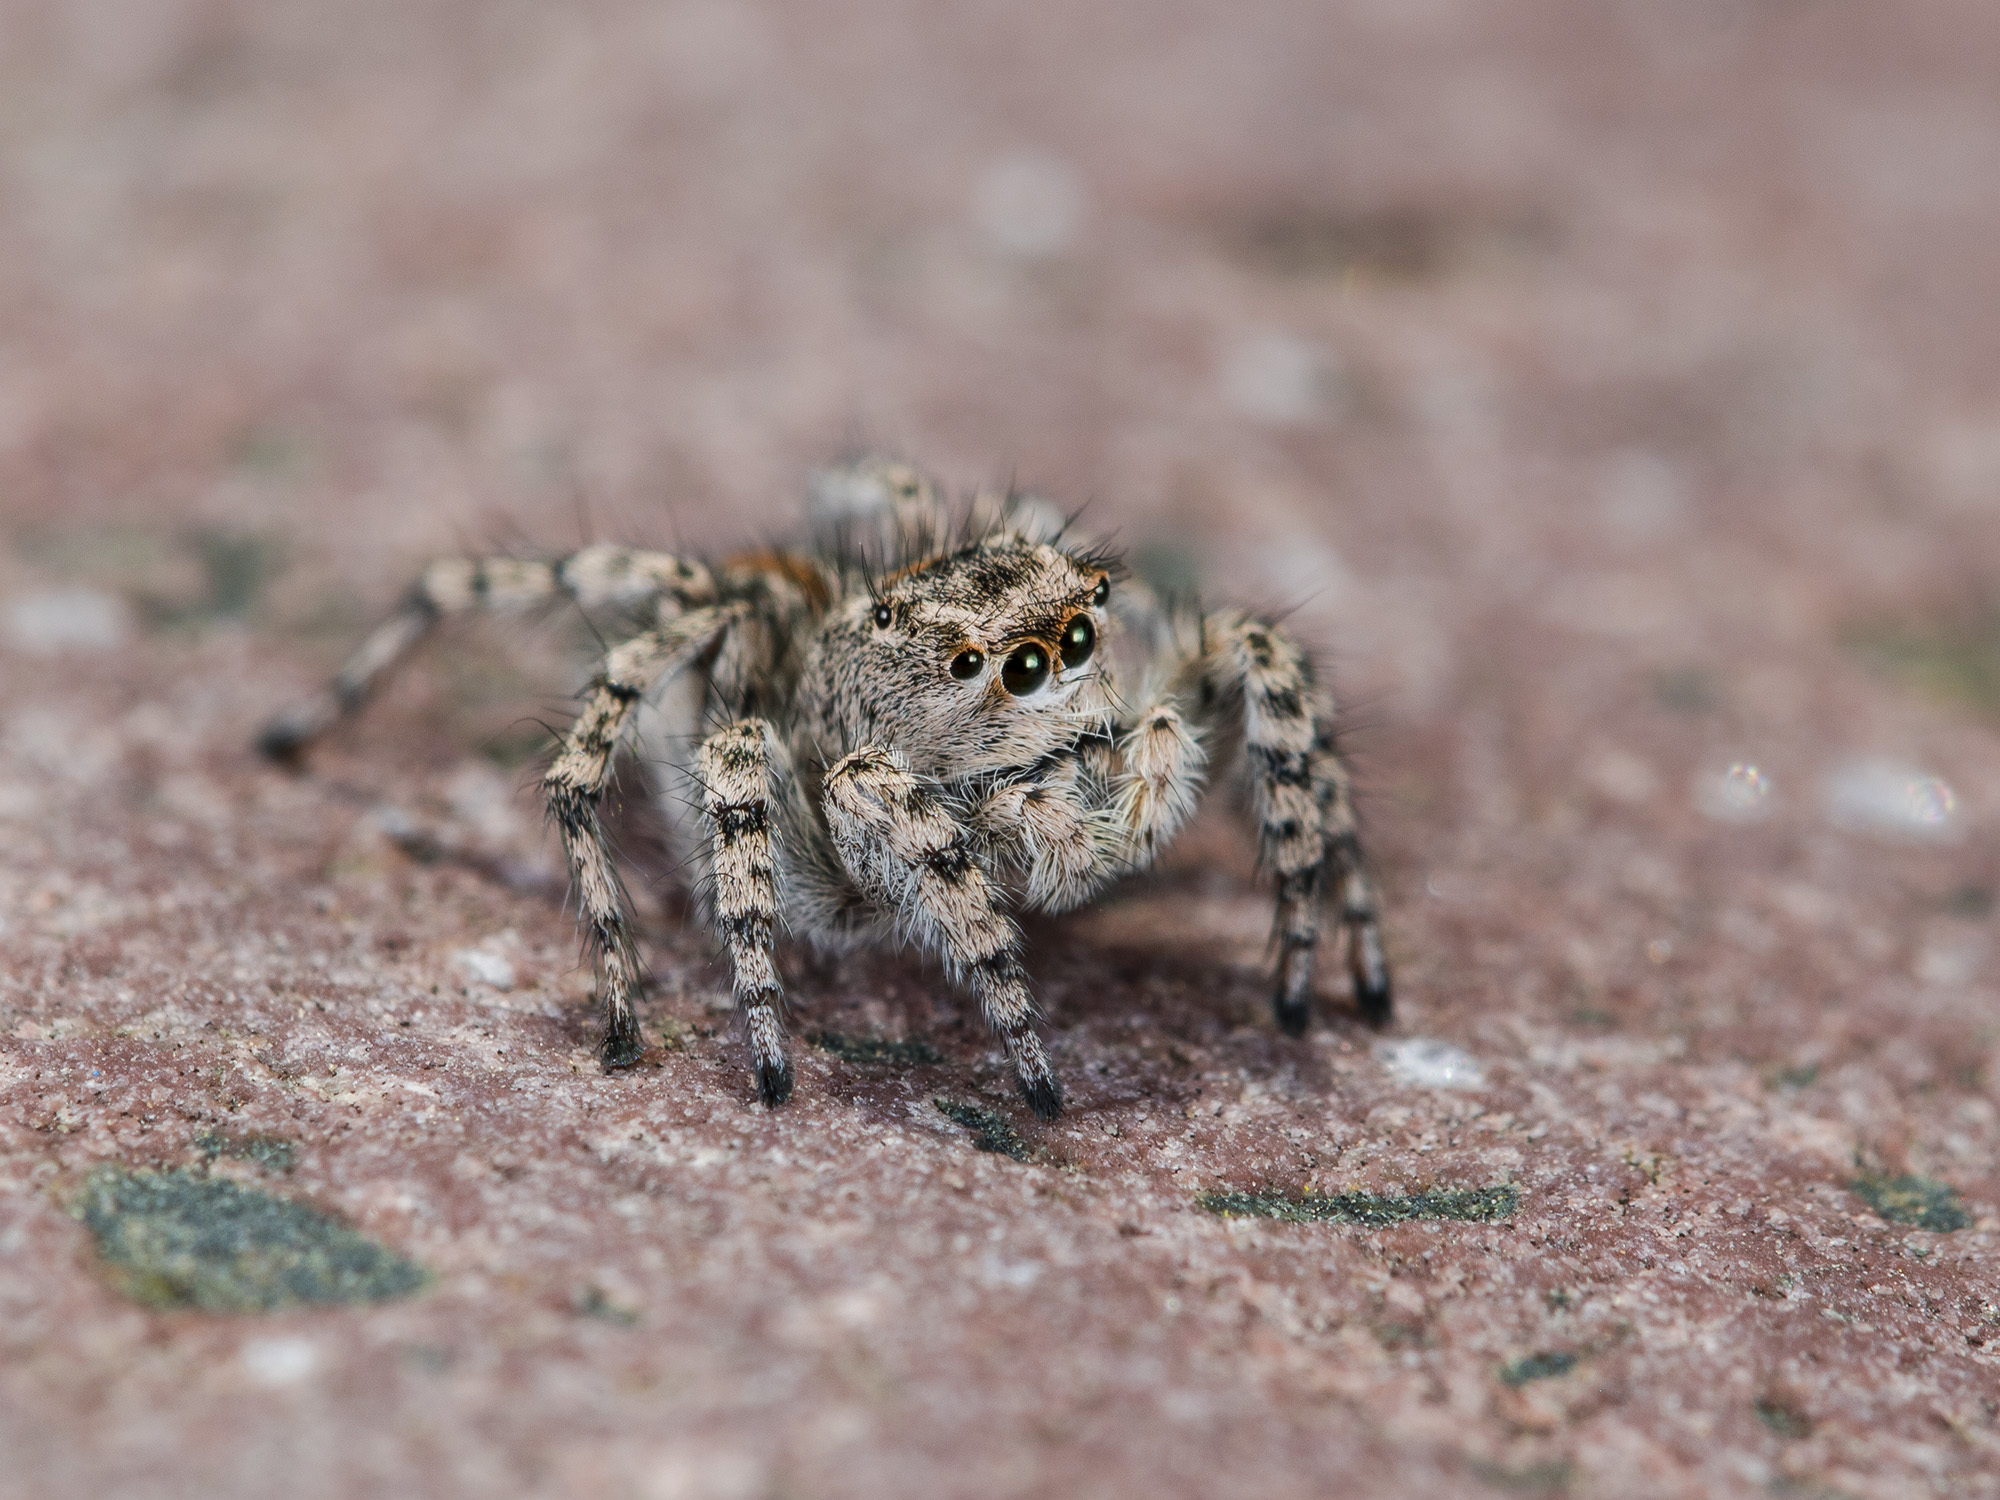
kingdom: Animalia
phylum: Arthropoda
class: Arachnida
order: Araneae
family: Salticidae
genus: Aelurillus
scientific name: Aelurillus dubatolovi
